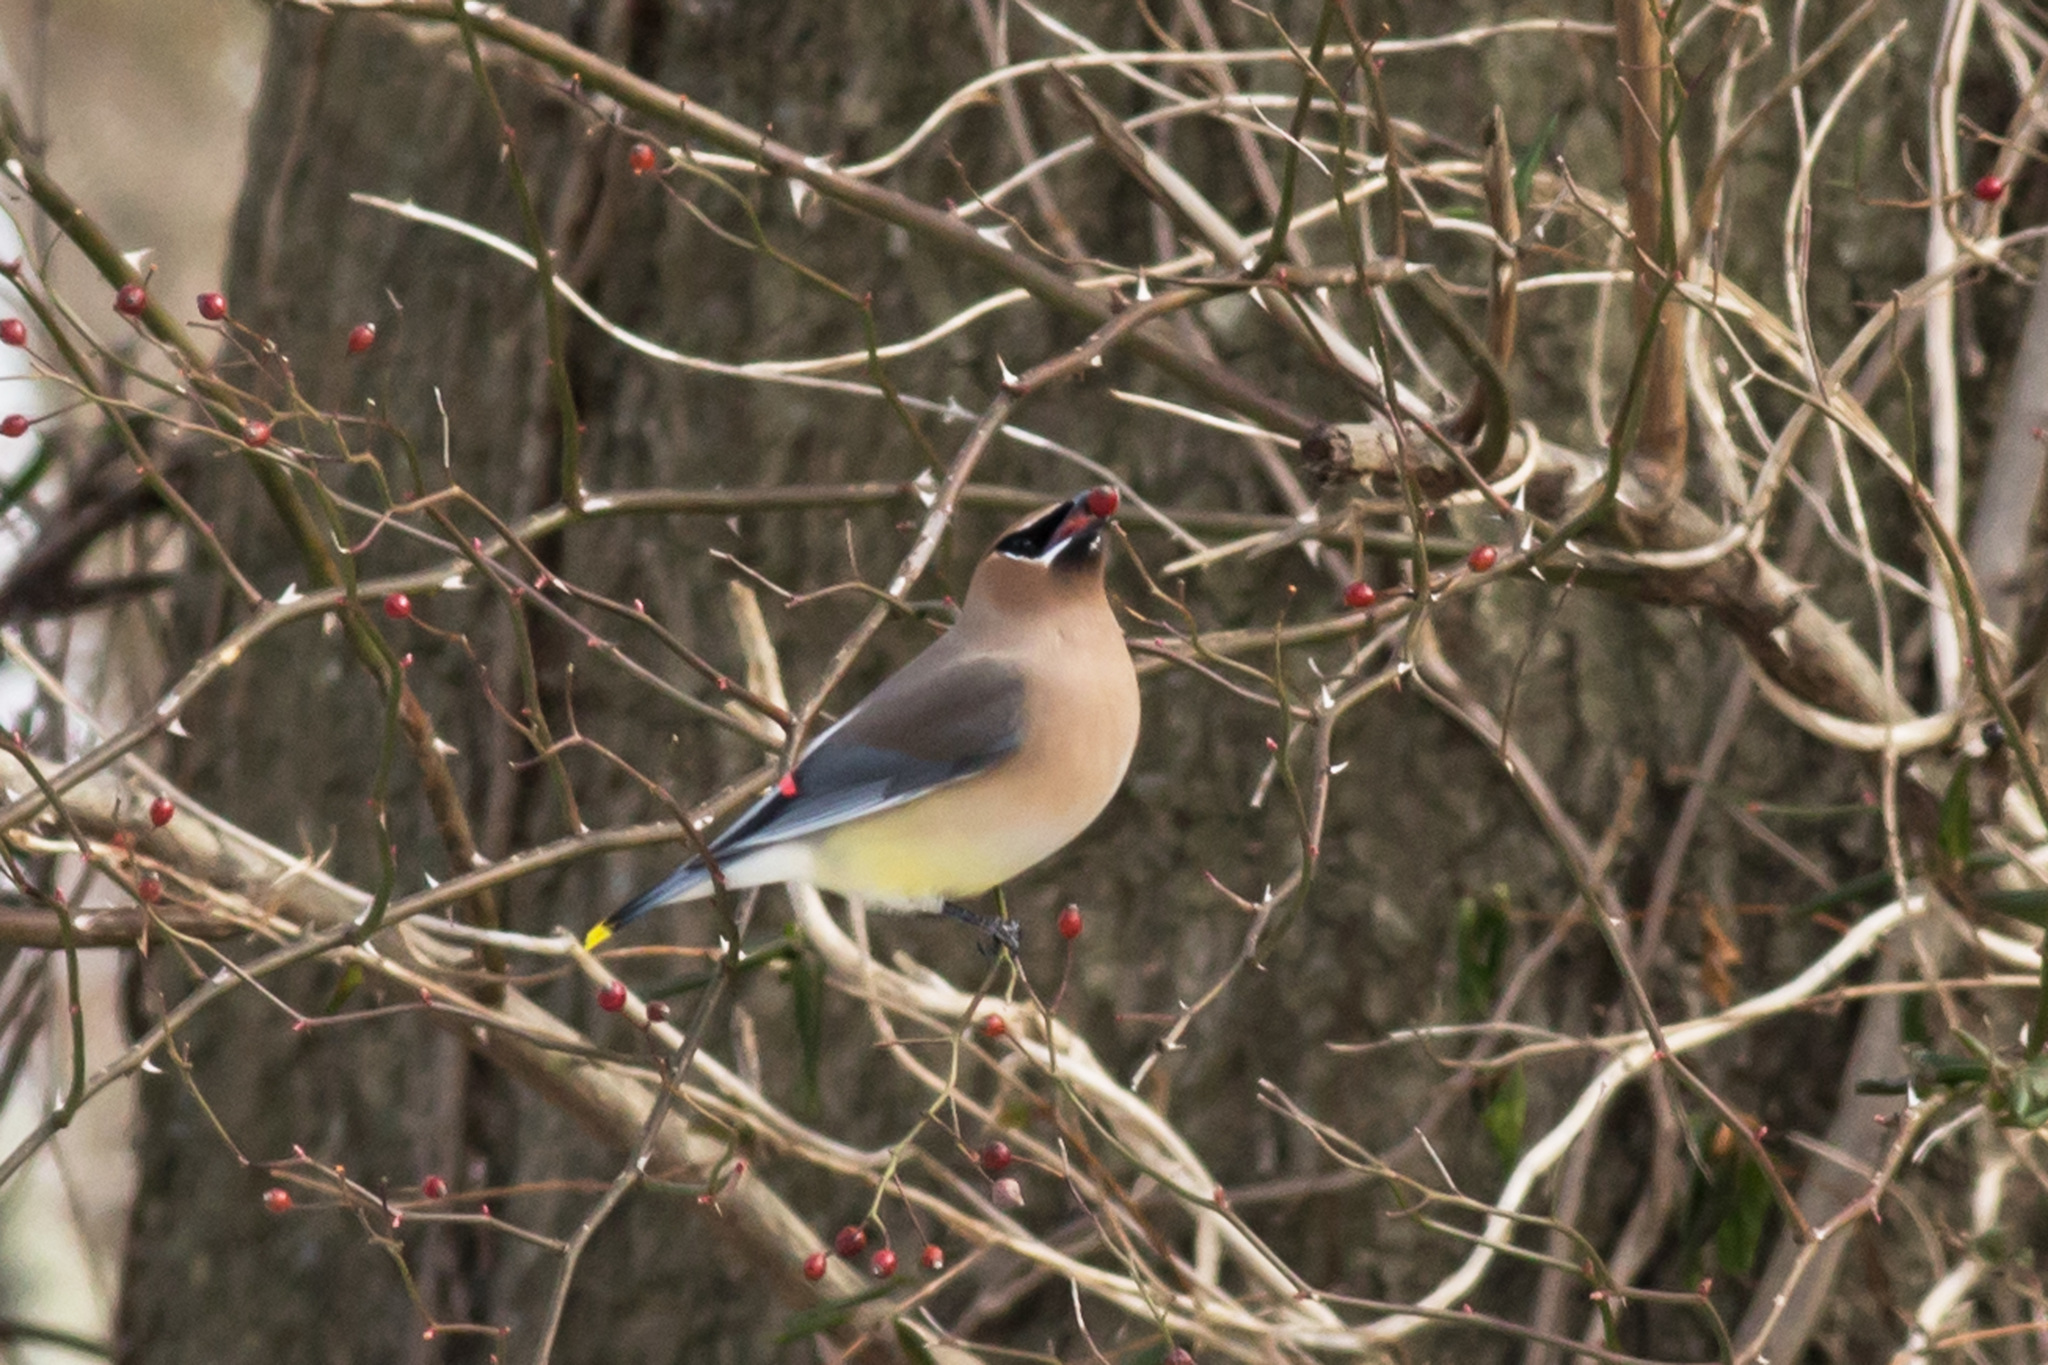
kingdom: Animalia
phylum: Chordata
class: Aves
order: Passeriformes
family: Bombycillidae
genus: Bombycilla
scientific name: Bombycilla cedrorum
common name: Cedar waxwing
